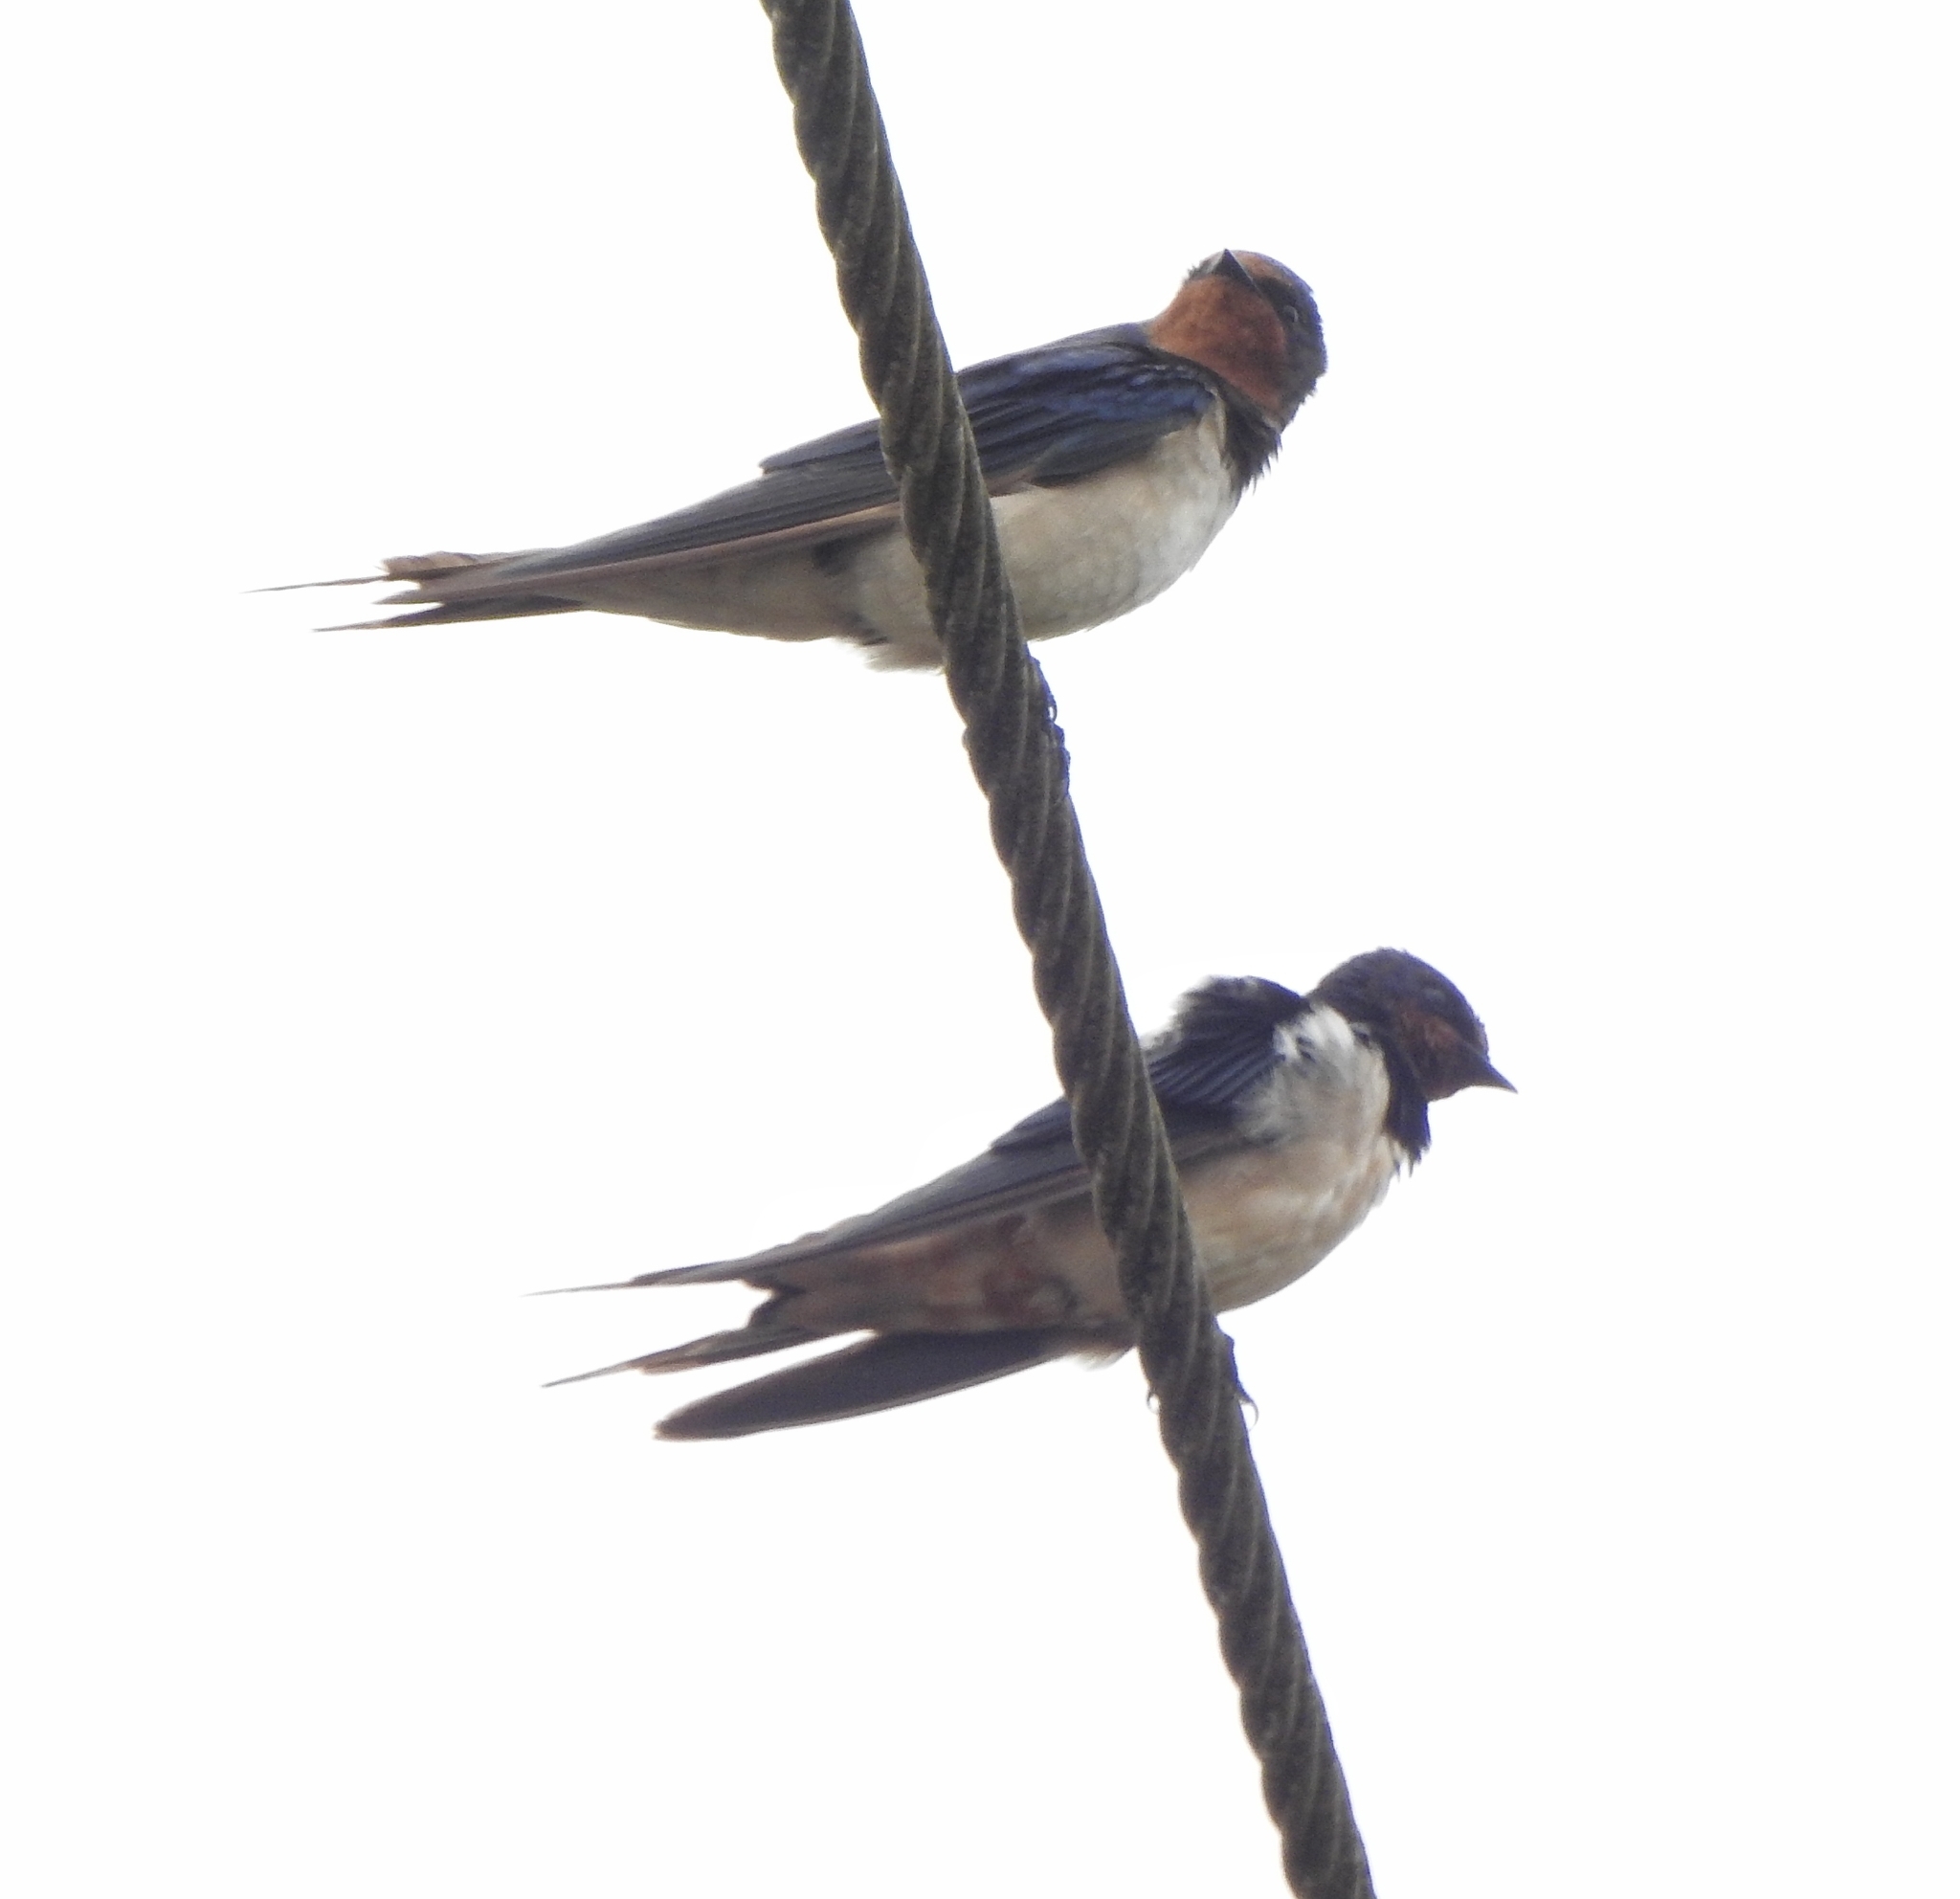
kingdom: Animalia
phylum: Chordata
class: Aves
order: Passeriformes
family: Hirundinidae
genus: Hirundo
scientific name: Hirundo rustica
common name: Barn swallow
